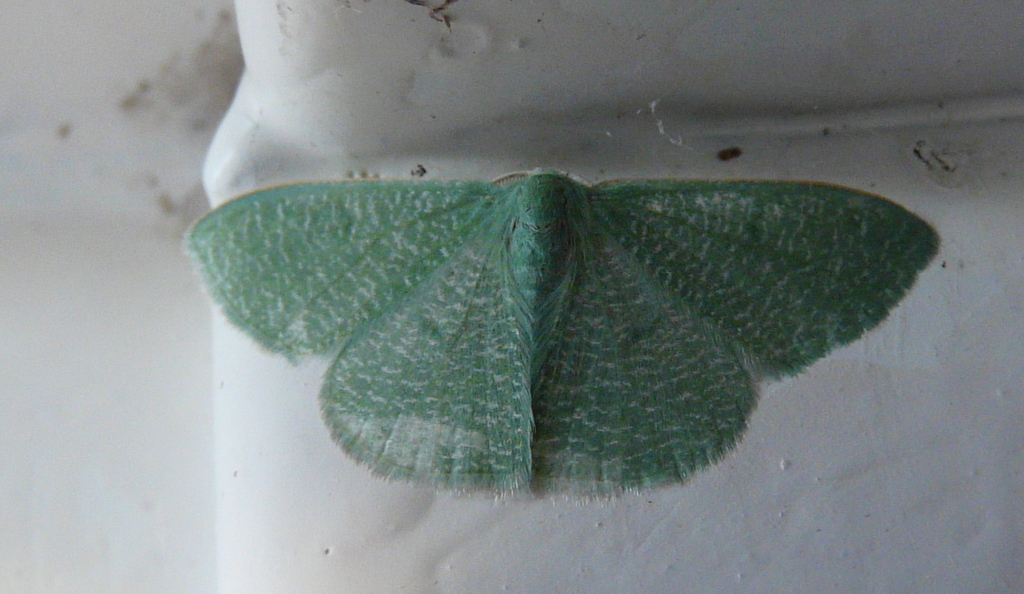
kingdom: Animalia
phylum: Arthropoda
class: Insecta
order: Lepidoptera
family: Geometridae
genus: Prasinocyma
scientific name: Prasinocyma vermicularia
